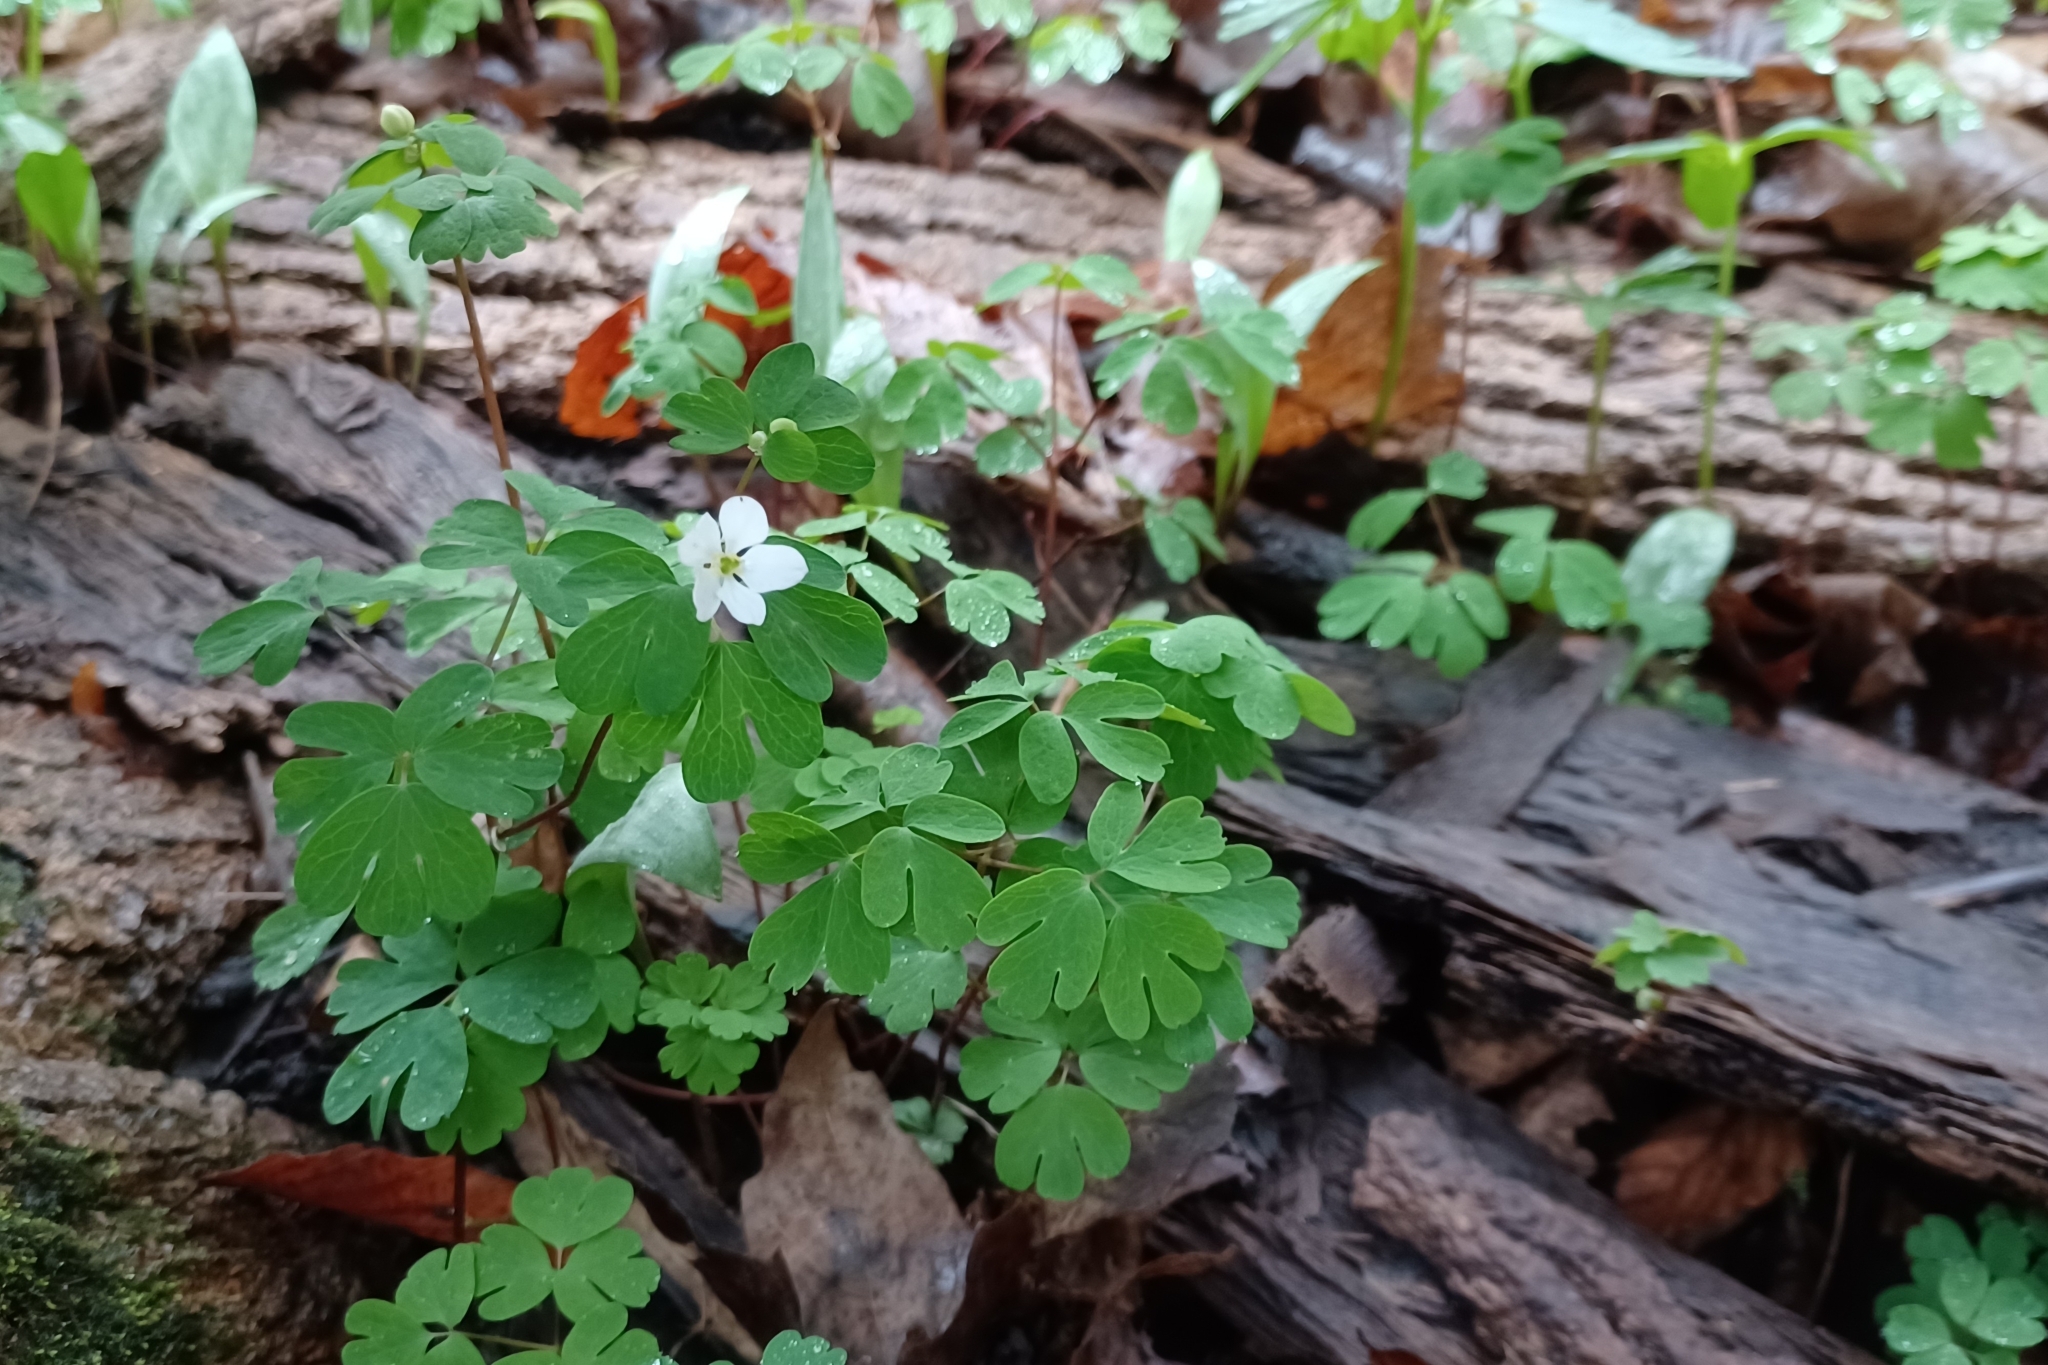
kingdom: Plantae
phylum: Tracheophyta
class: Magnoliopsida
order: Ranunculales
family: Ranunculaceae
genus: Enemion
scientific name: Enemion biternatum
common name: Eastern false rue-anemone
